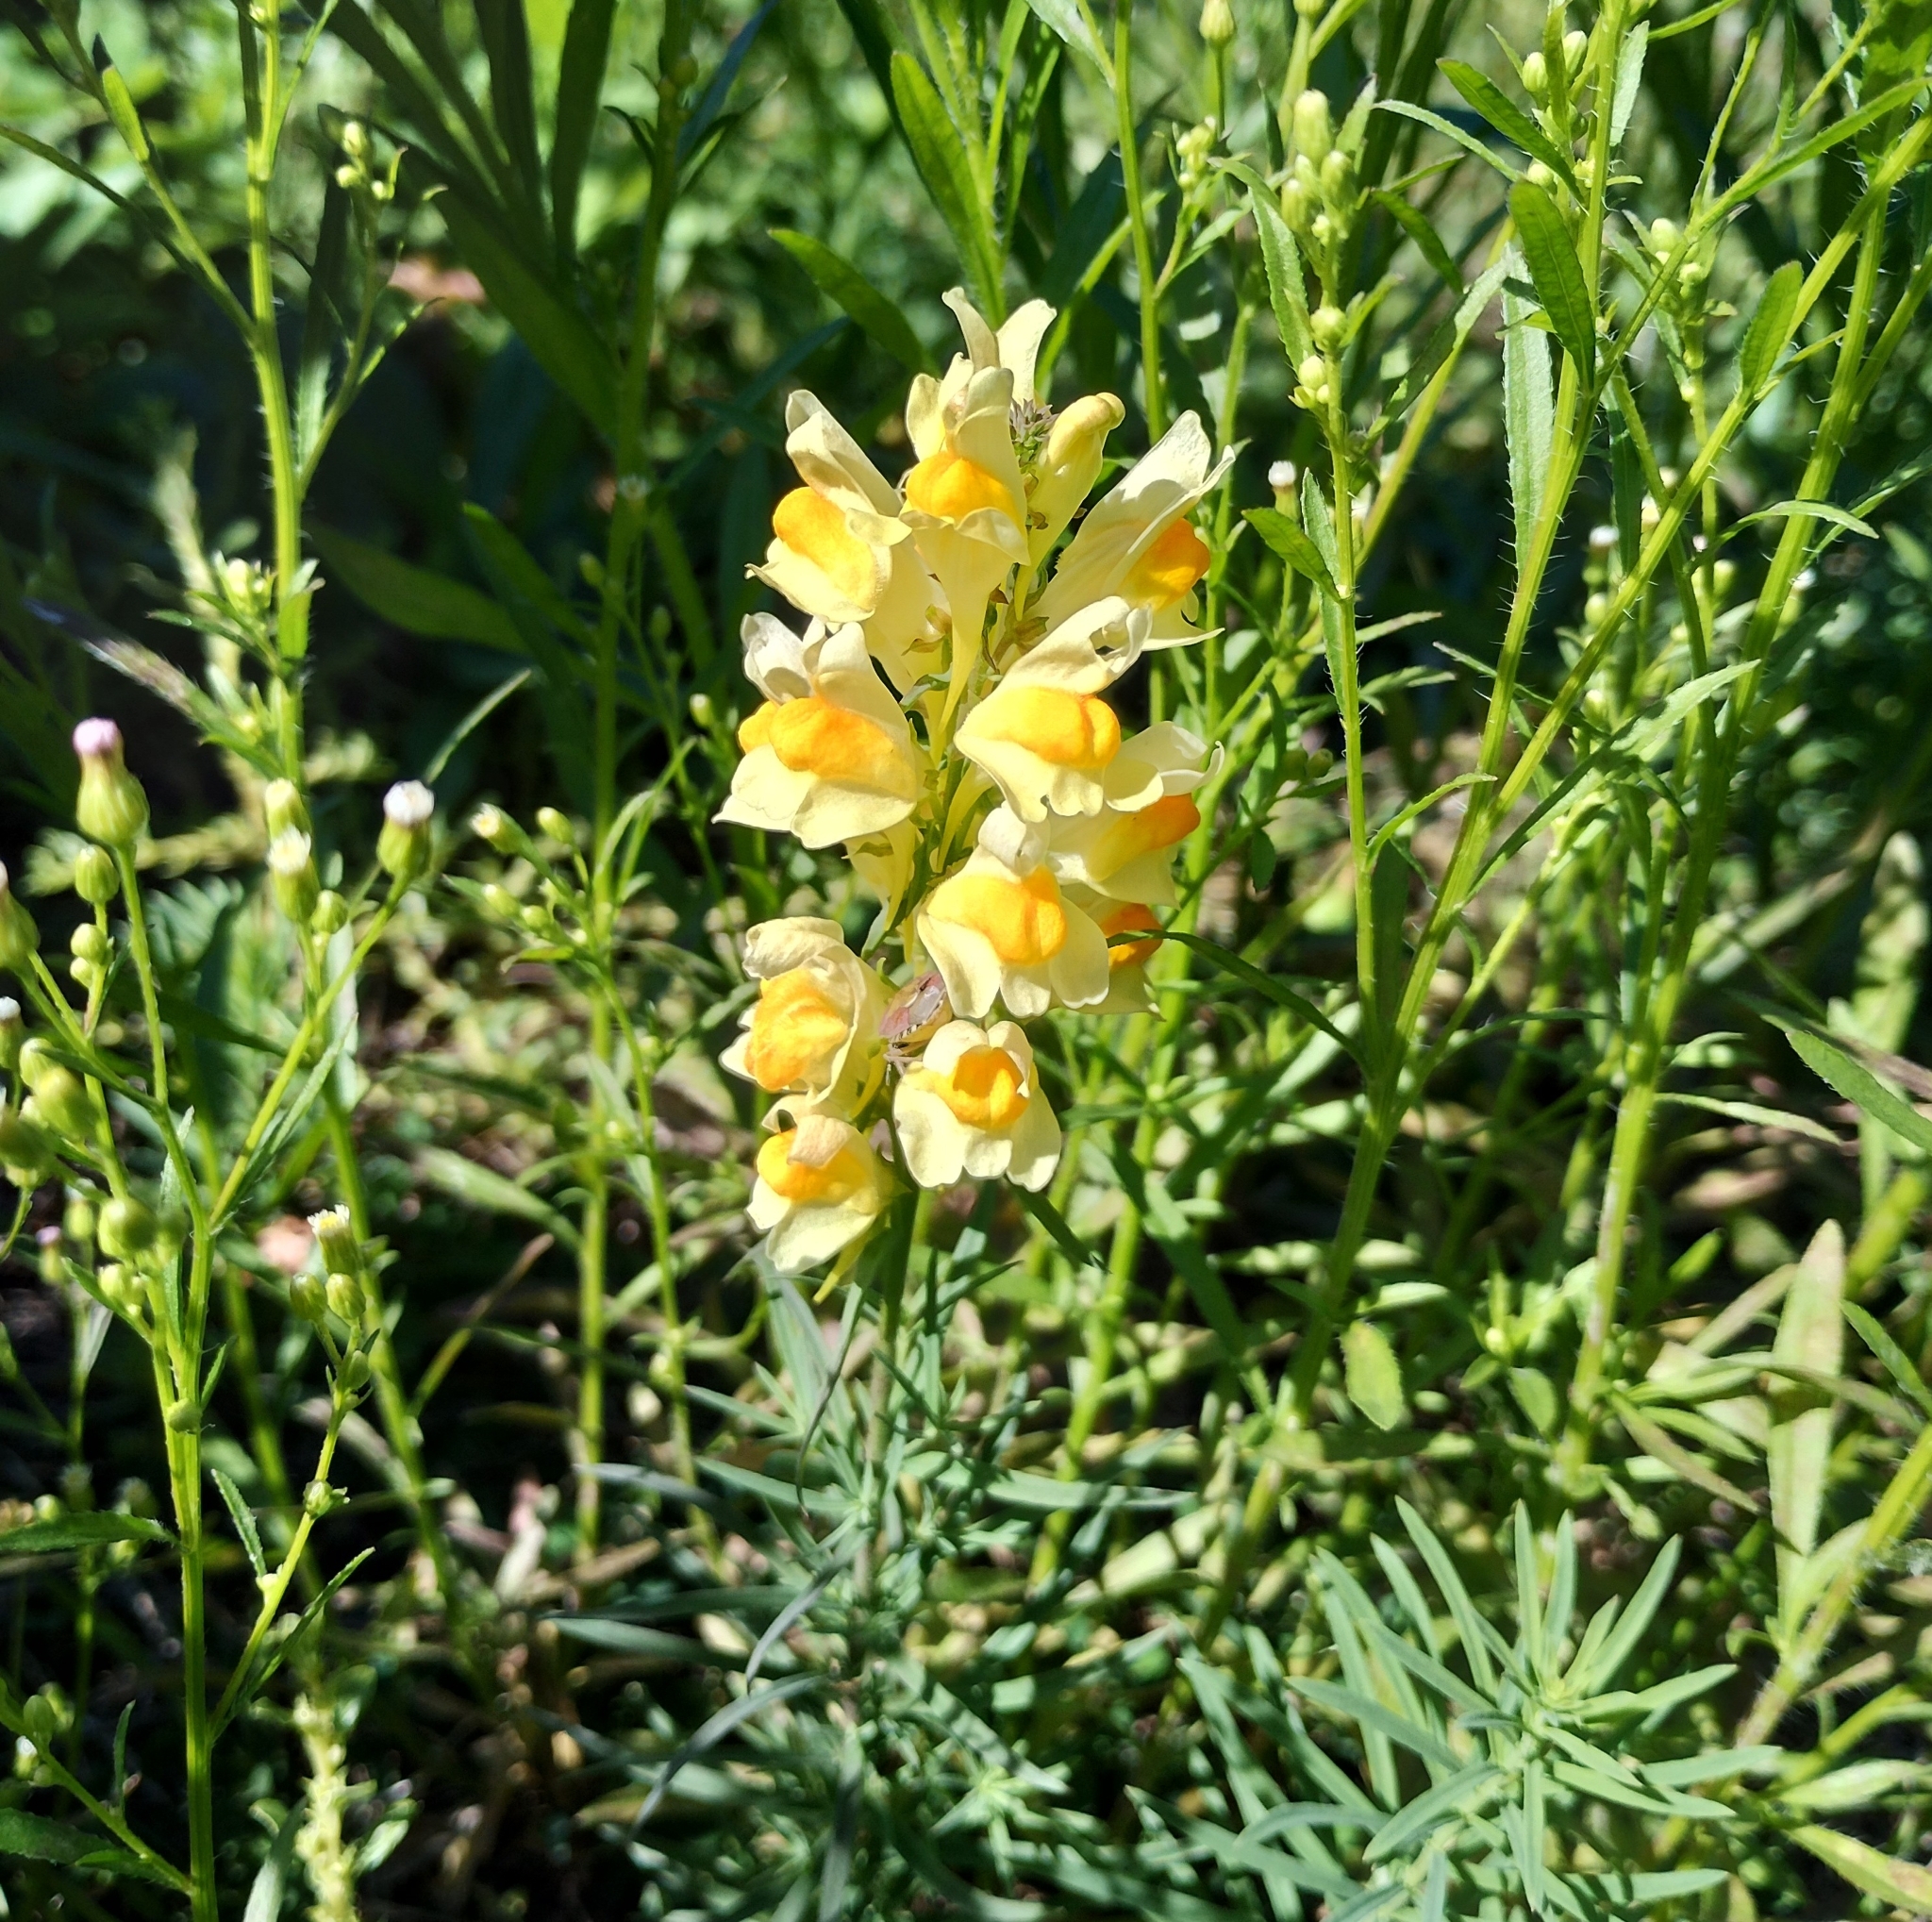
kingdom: Plantae
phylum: Tracheophyta
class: Magnoliopsida
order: Lamiales
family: Plantaginaceae
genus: Linaria
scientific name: Linaria vulgaris
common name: Butter and eggs
